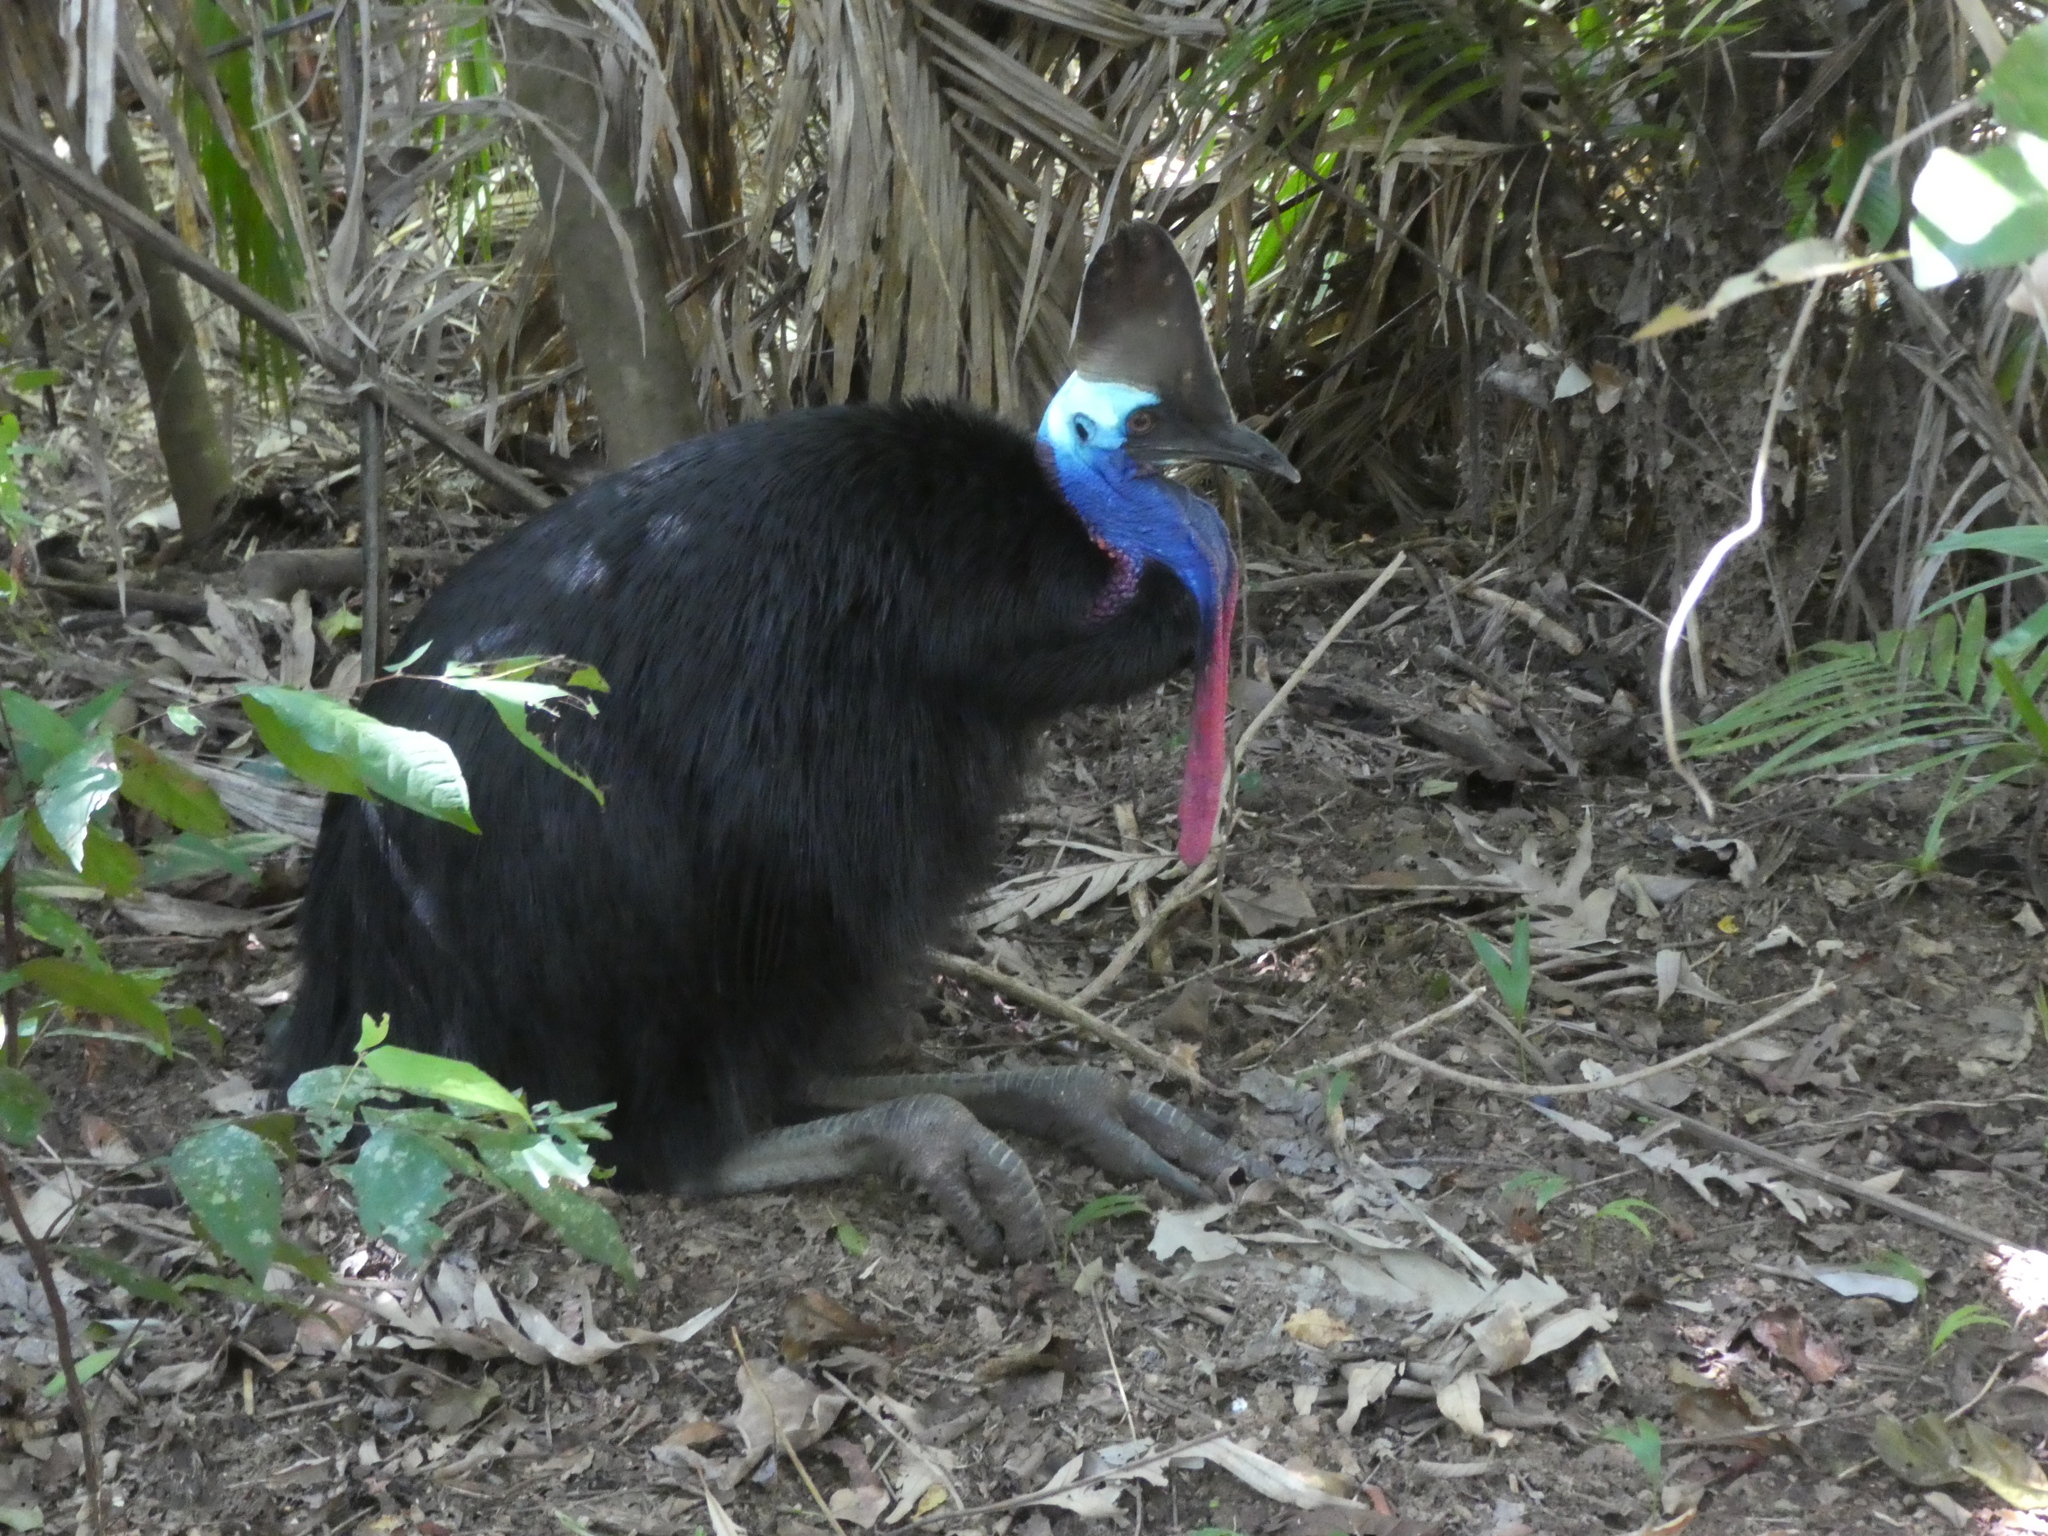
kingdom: Animalia
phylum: Chordata
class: Aves
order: Casuariiformes
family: Casuariidae
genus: Casuarius
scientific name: Casuarius casuarius
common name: Southern cassowary
